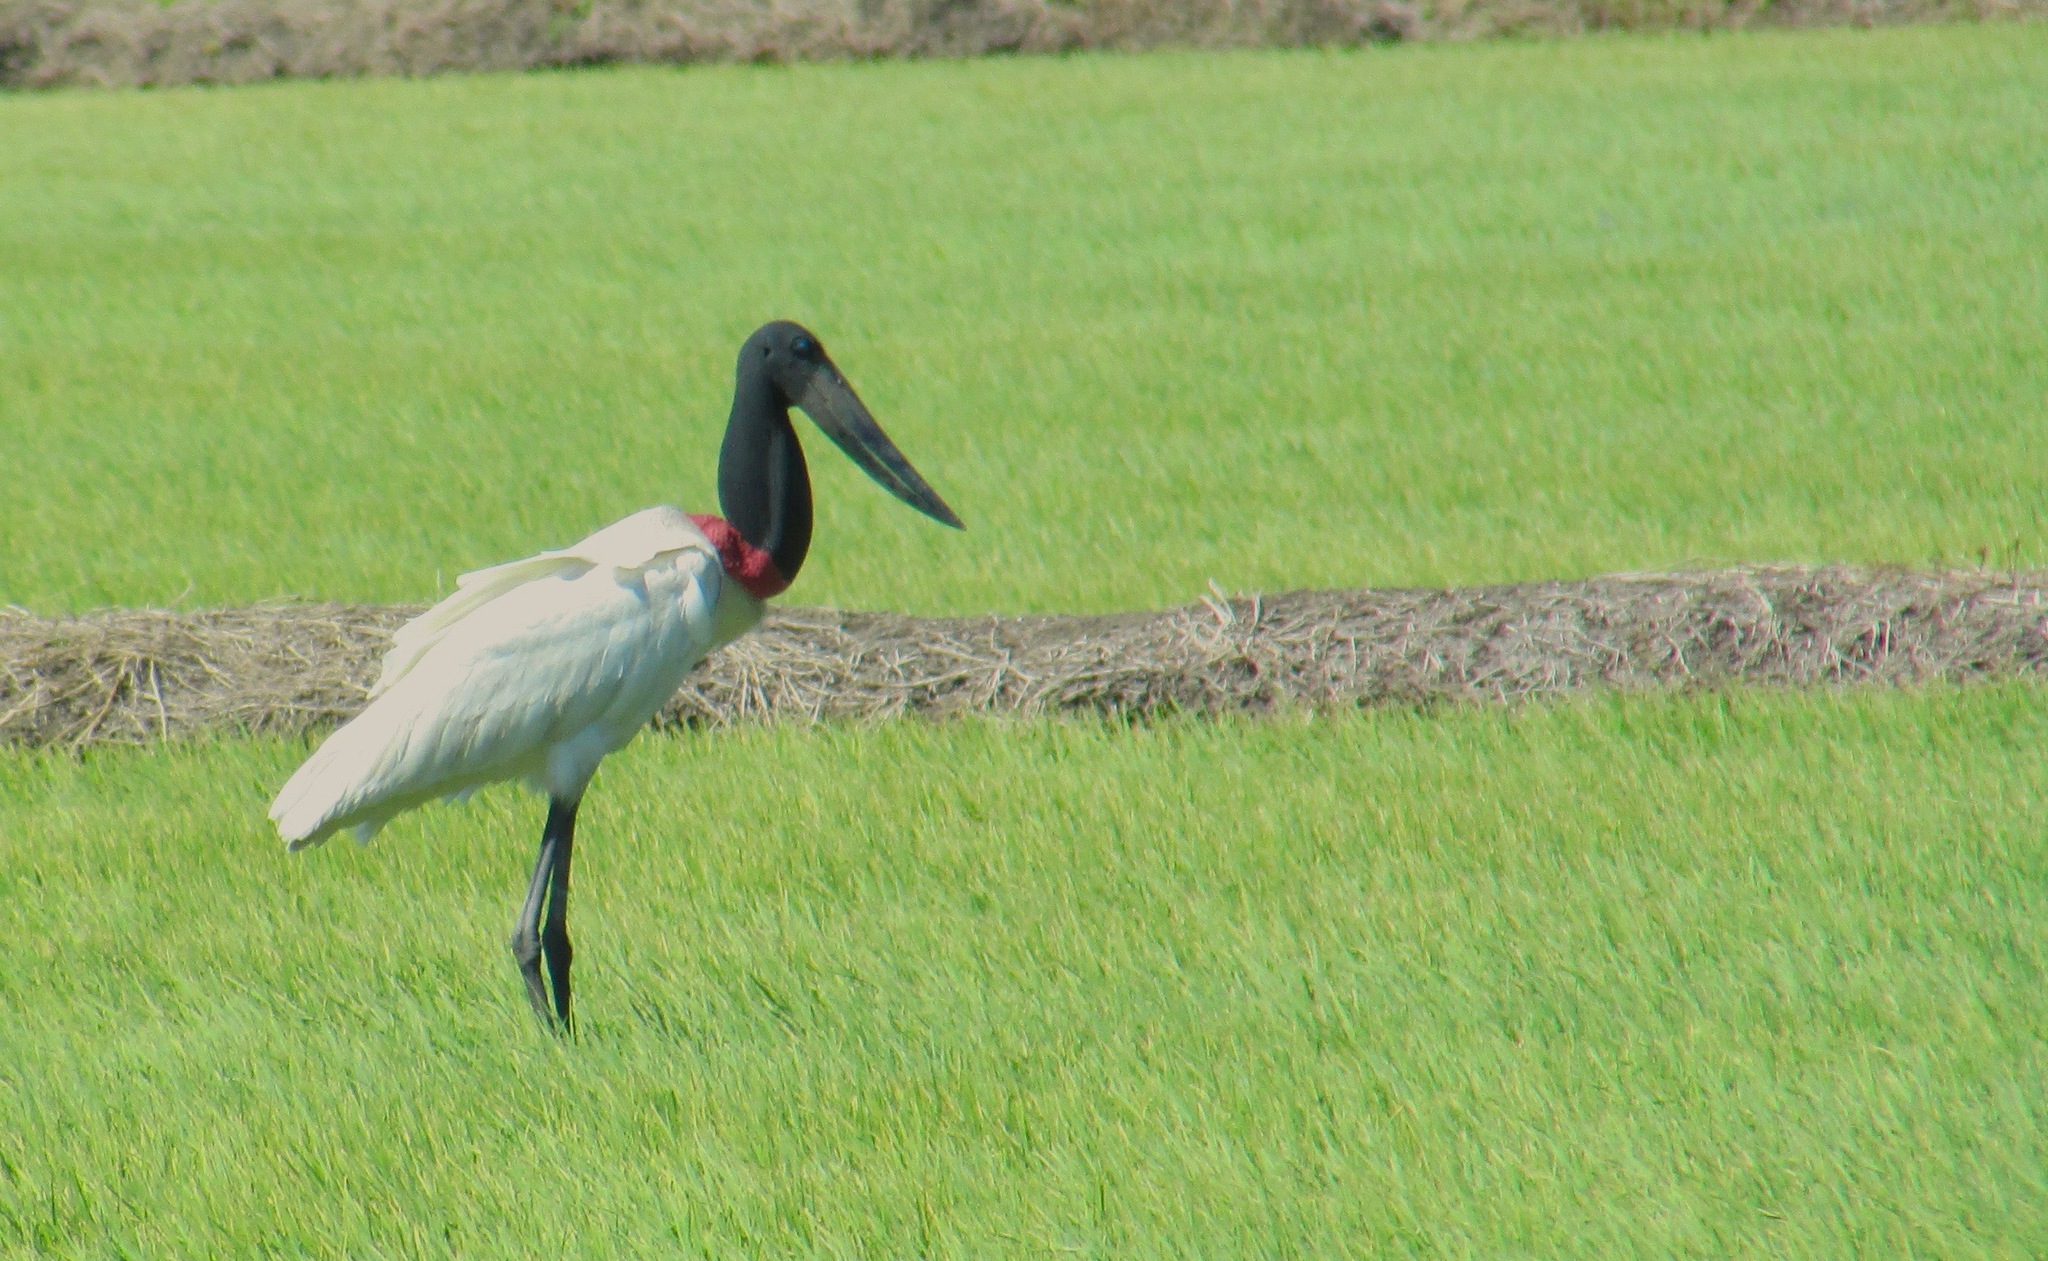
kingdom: Animalia
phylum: Chordata
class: Aves
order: Ciconiiformes
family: Ciconiidae
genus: Jabiru
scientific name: Jabiru mycteria
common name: Jabiru
